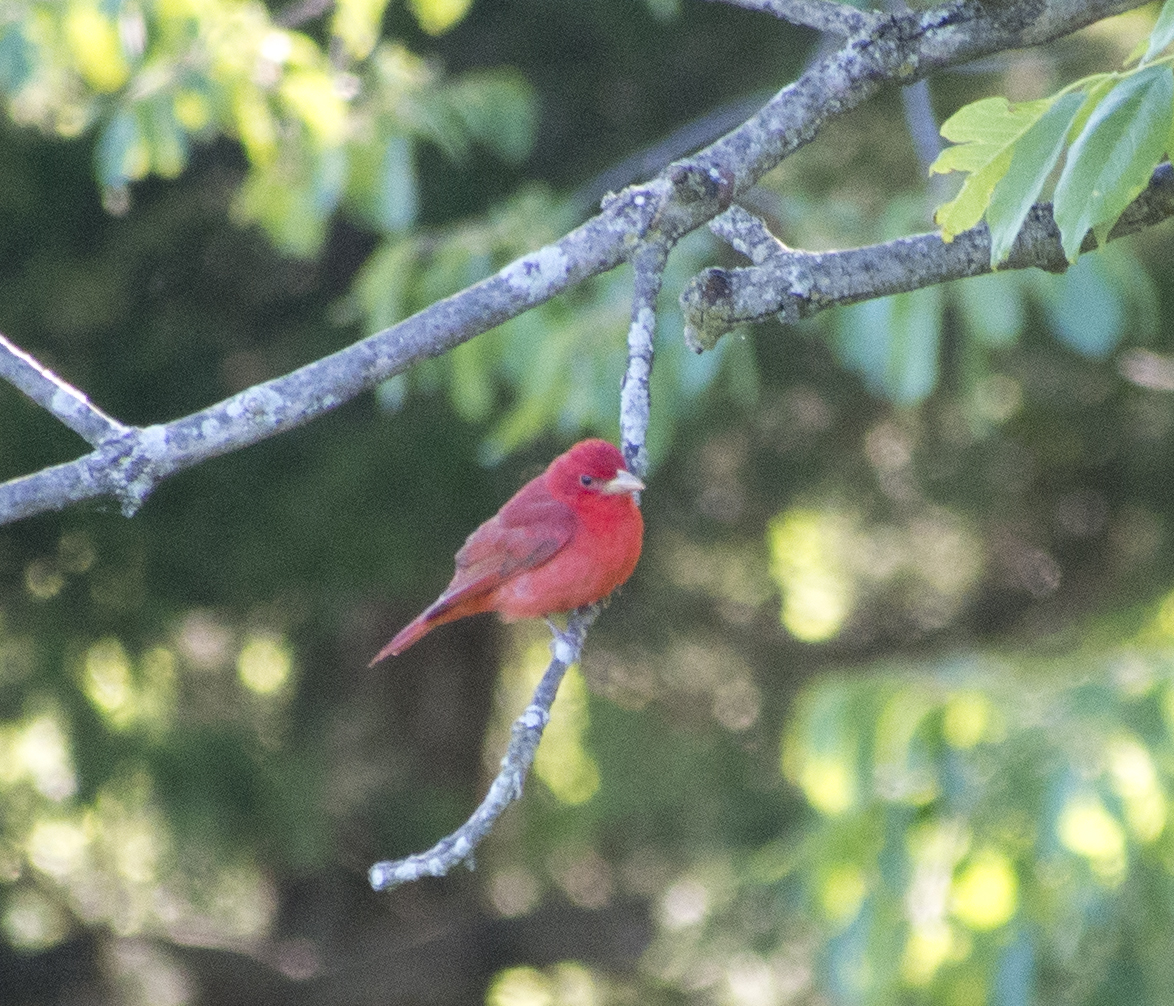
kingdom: Animalia
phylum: Chordata
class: Aves
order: Passeriformes
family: Cardinalidae
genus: Piranga
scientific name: Piranga rubra
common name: Summer tanager
